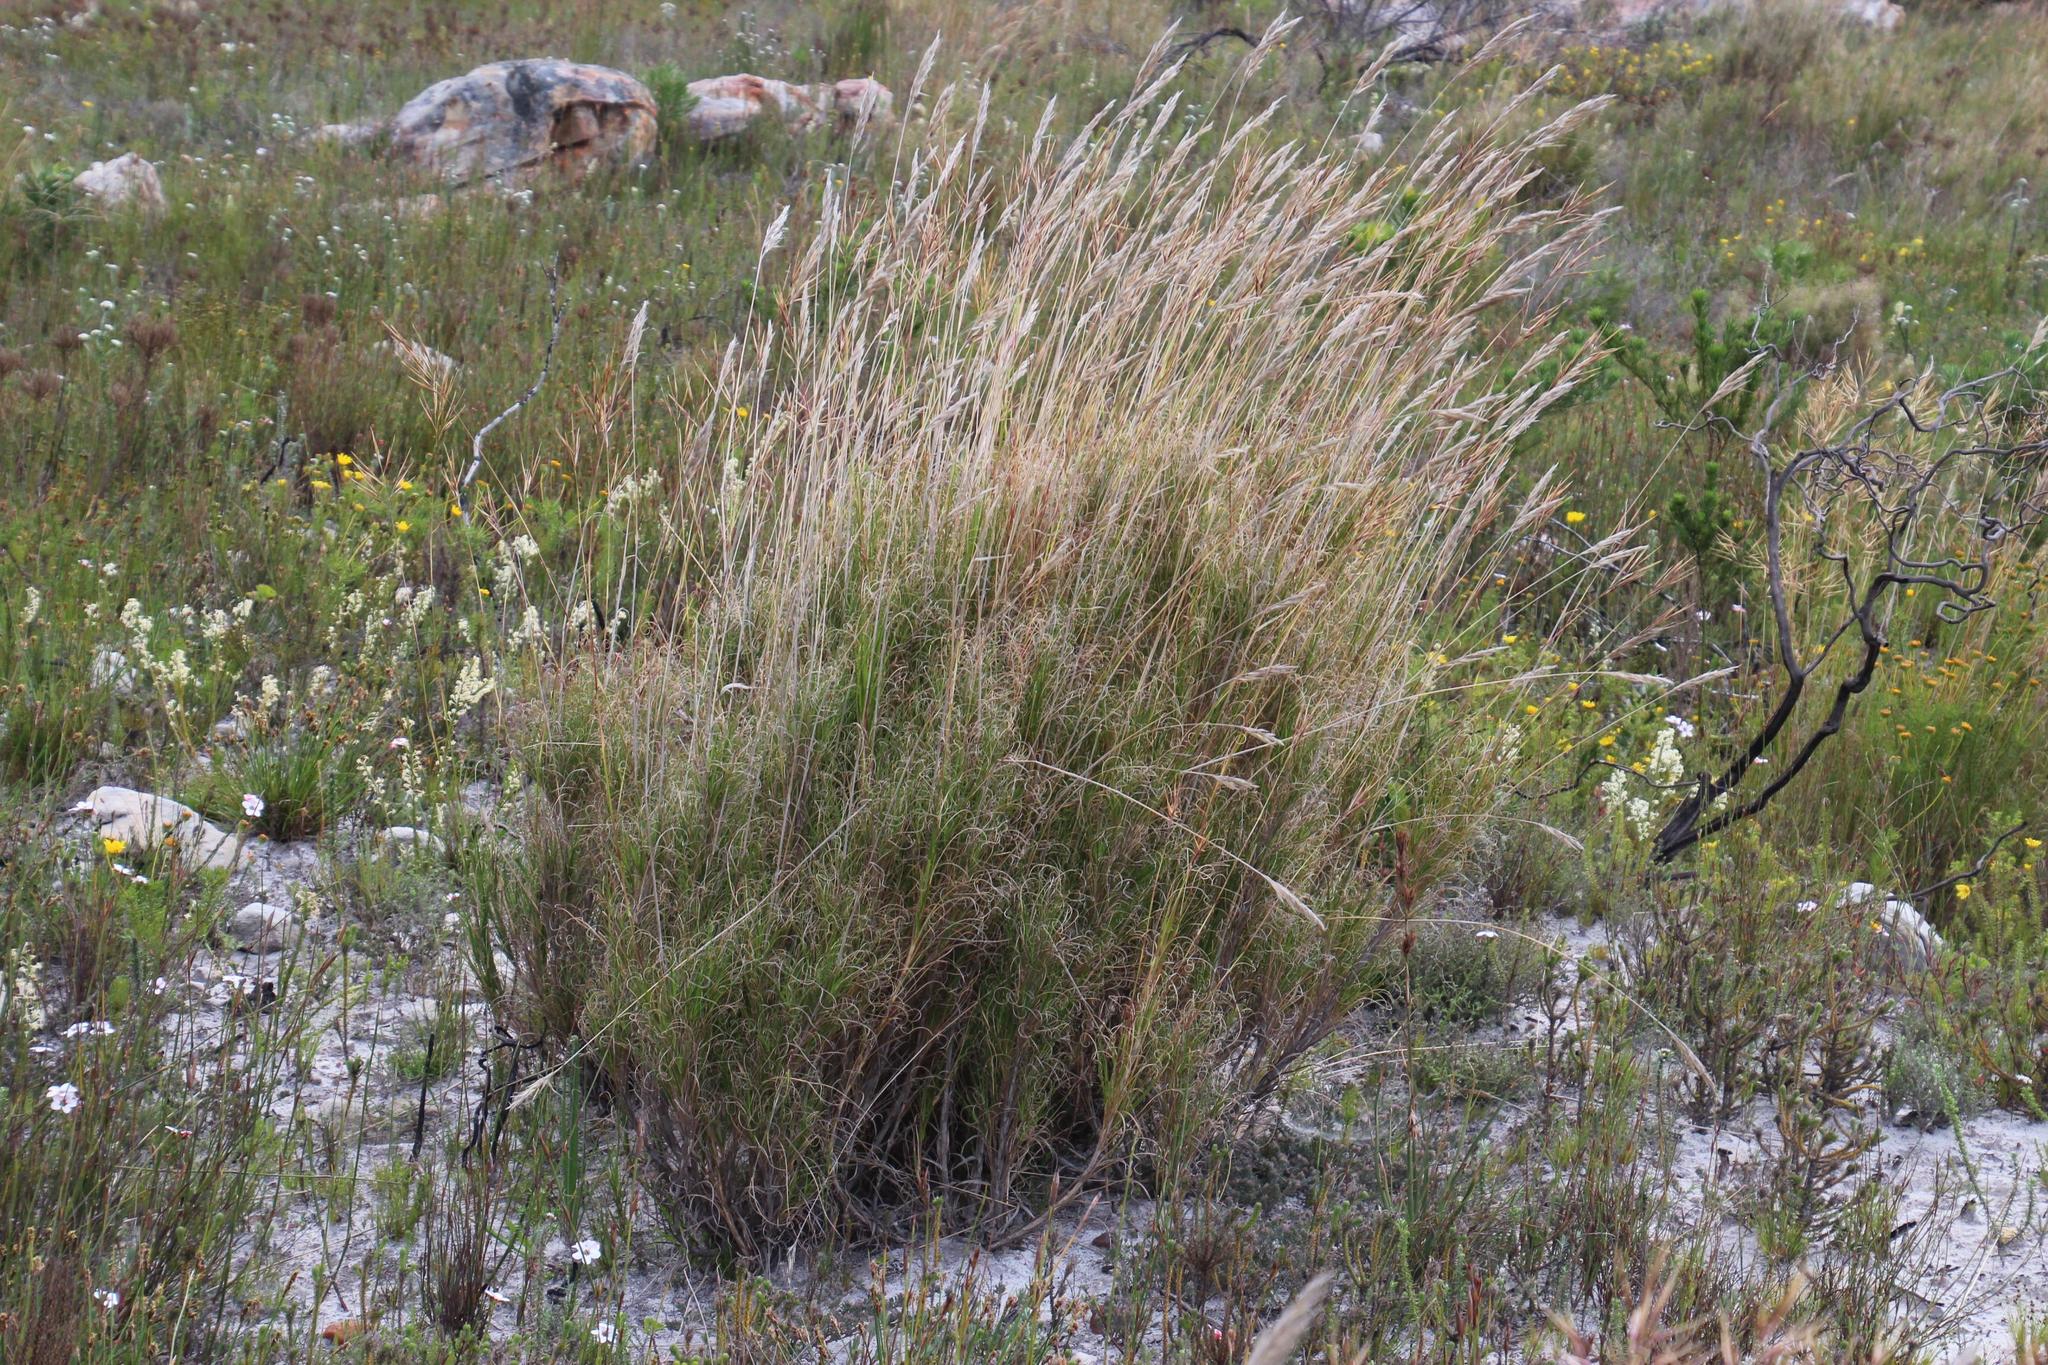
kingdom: Plantae
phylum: Tracheophyta
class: Liliopsida
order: Poales
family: Poaceae
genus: Pseudopentameris
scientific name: Pseudopentameris macrantha
